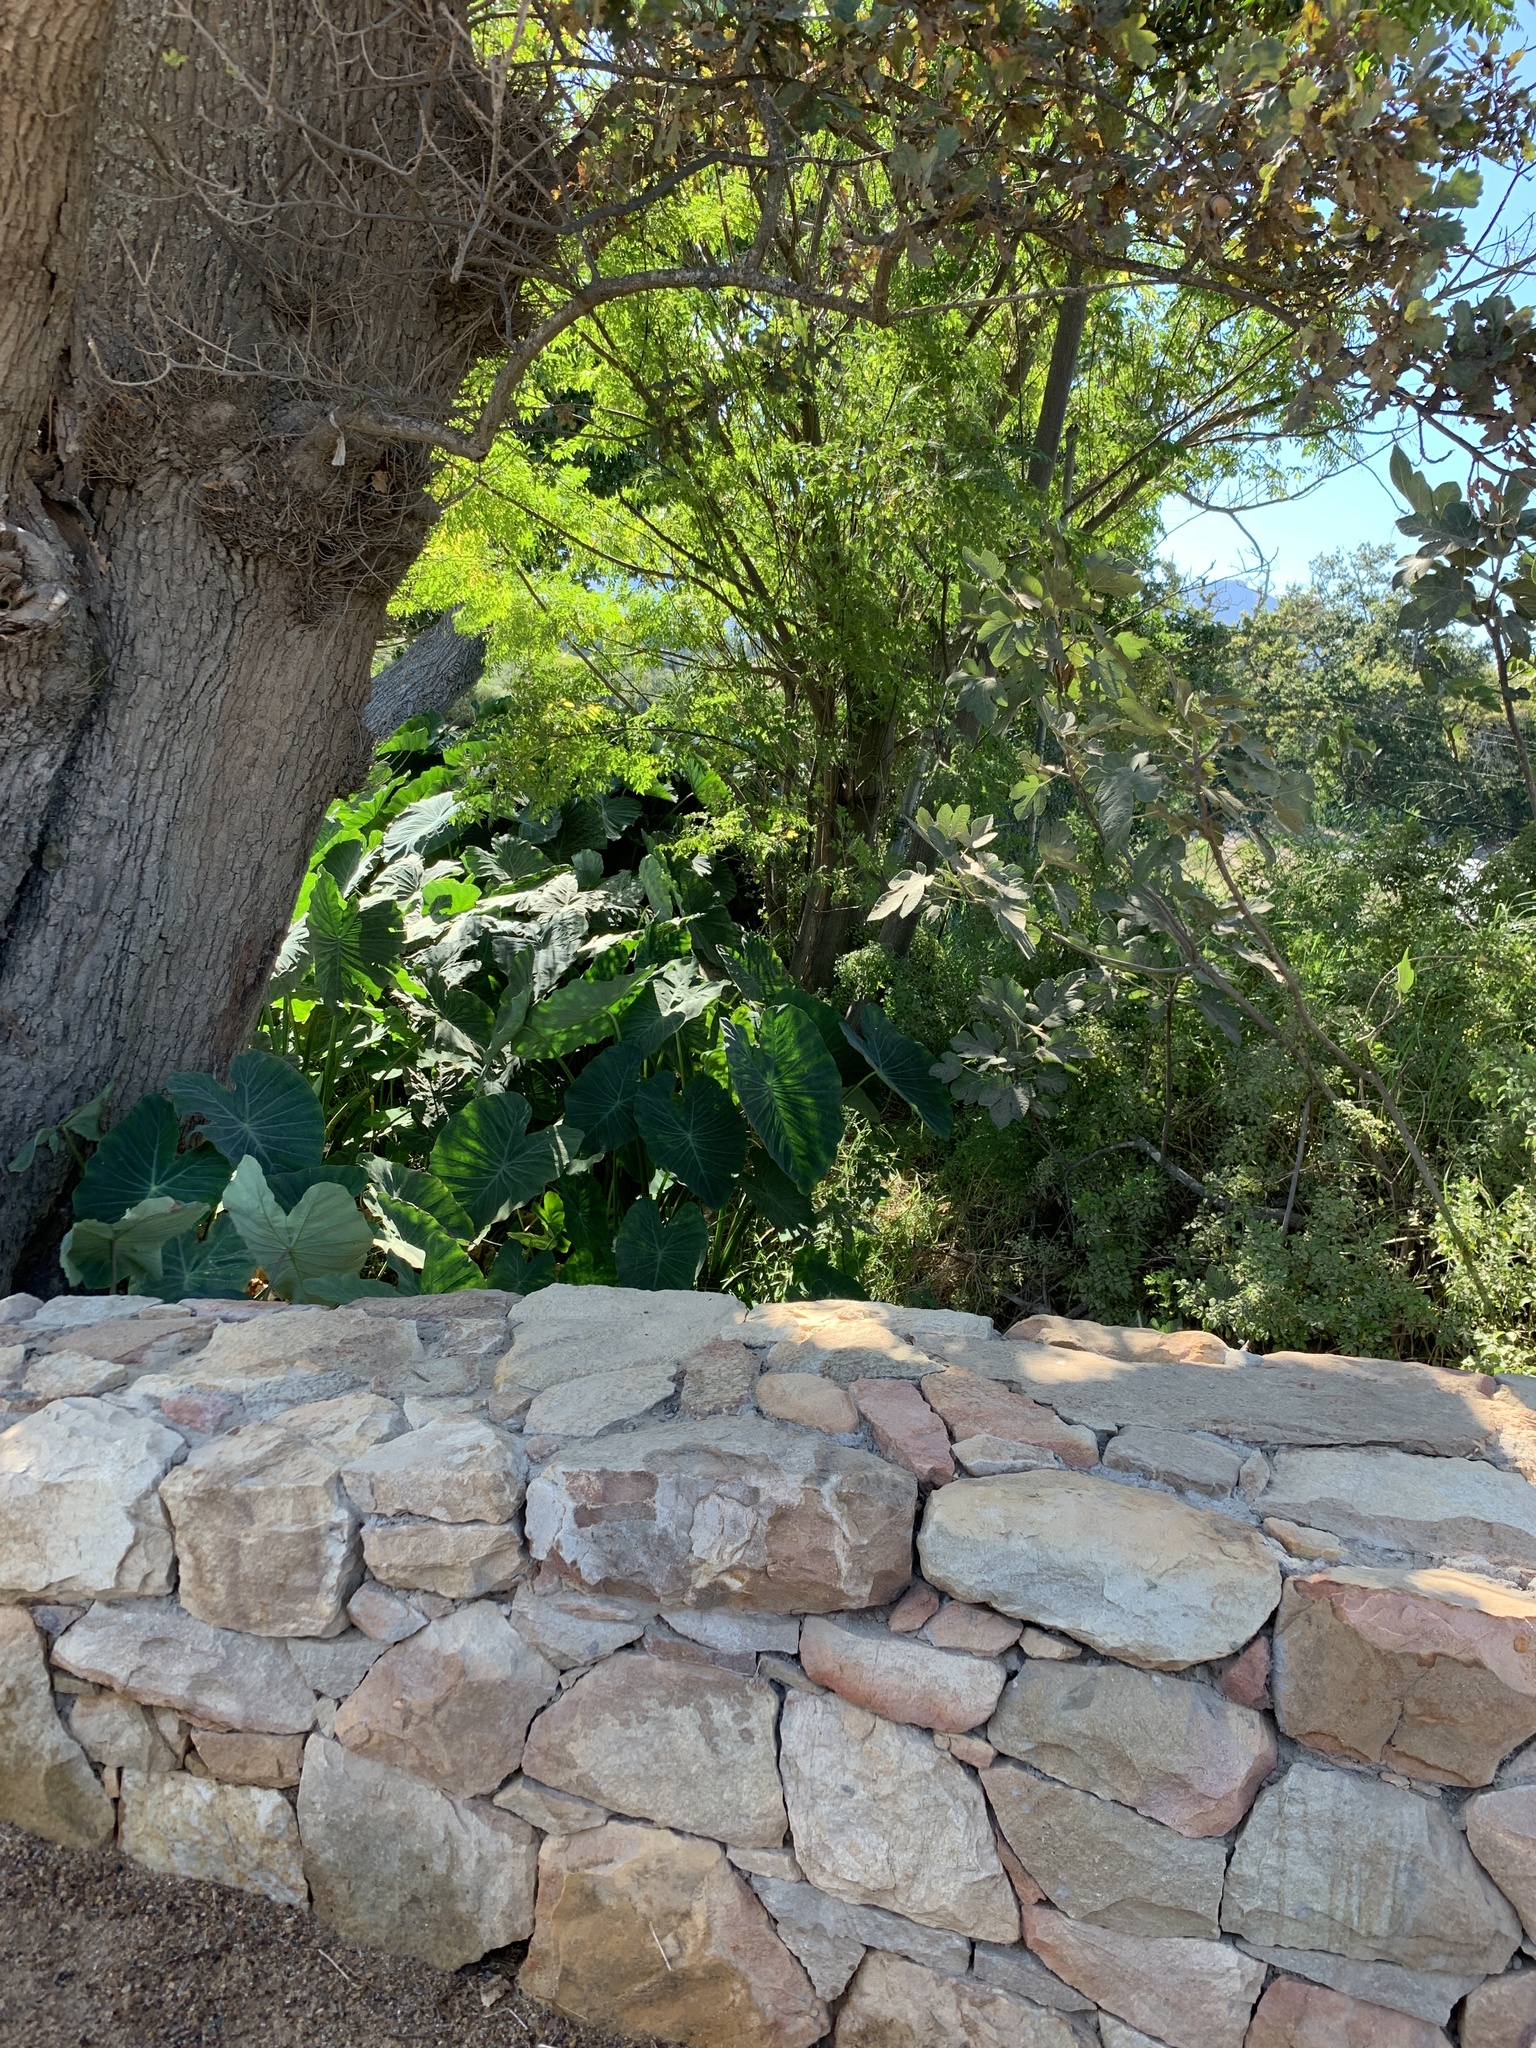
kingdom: Plantae
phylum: Tracheophyta
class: Liliopsida
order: Alismatales
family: Araceae
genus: Colocasia
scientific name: Colocasia esculenta
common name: Taro
